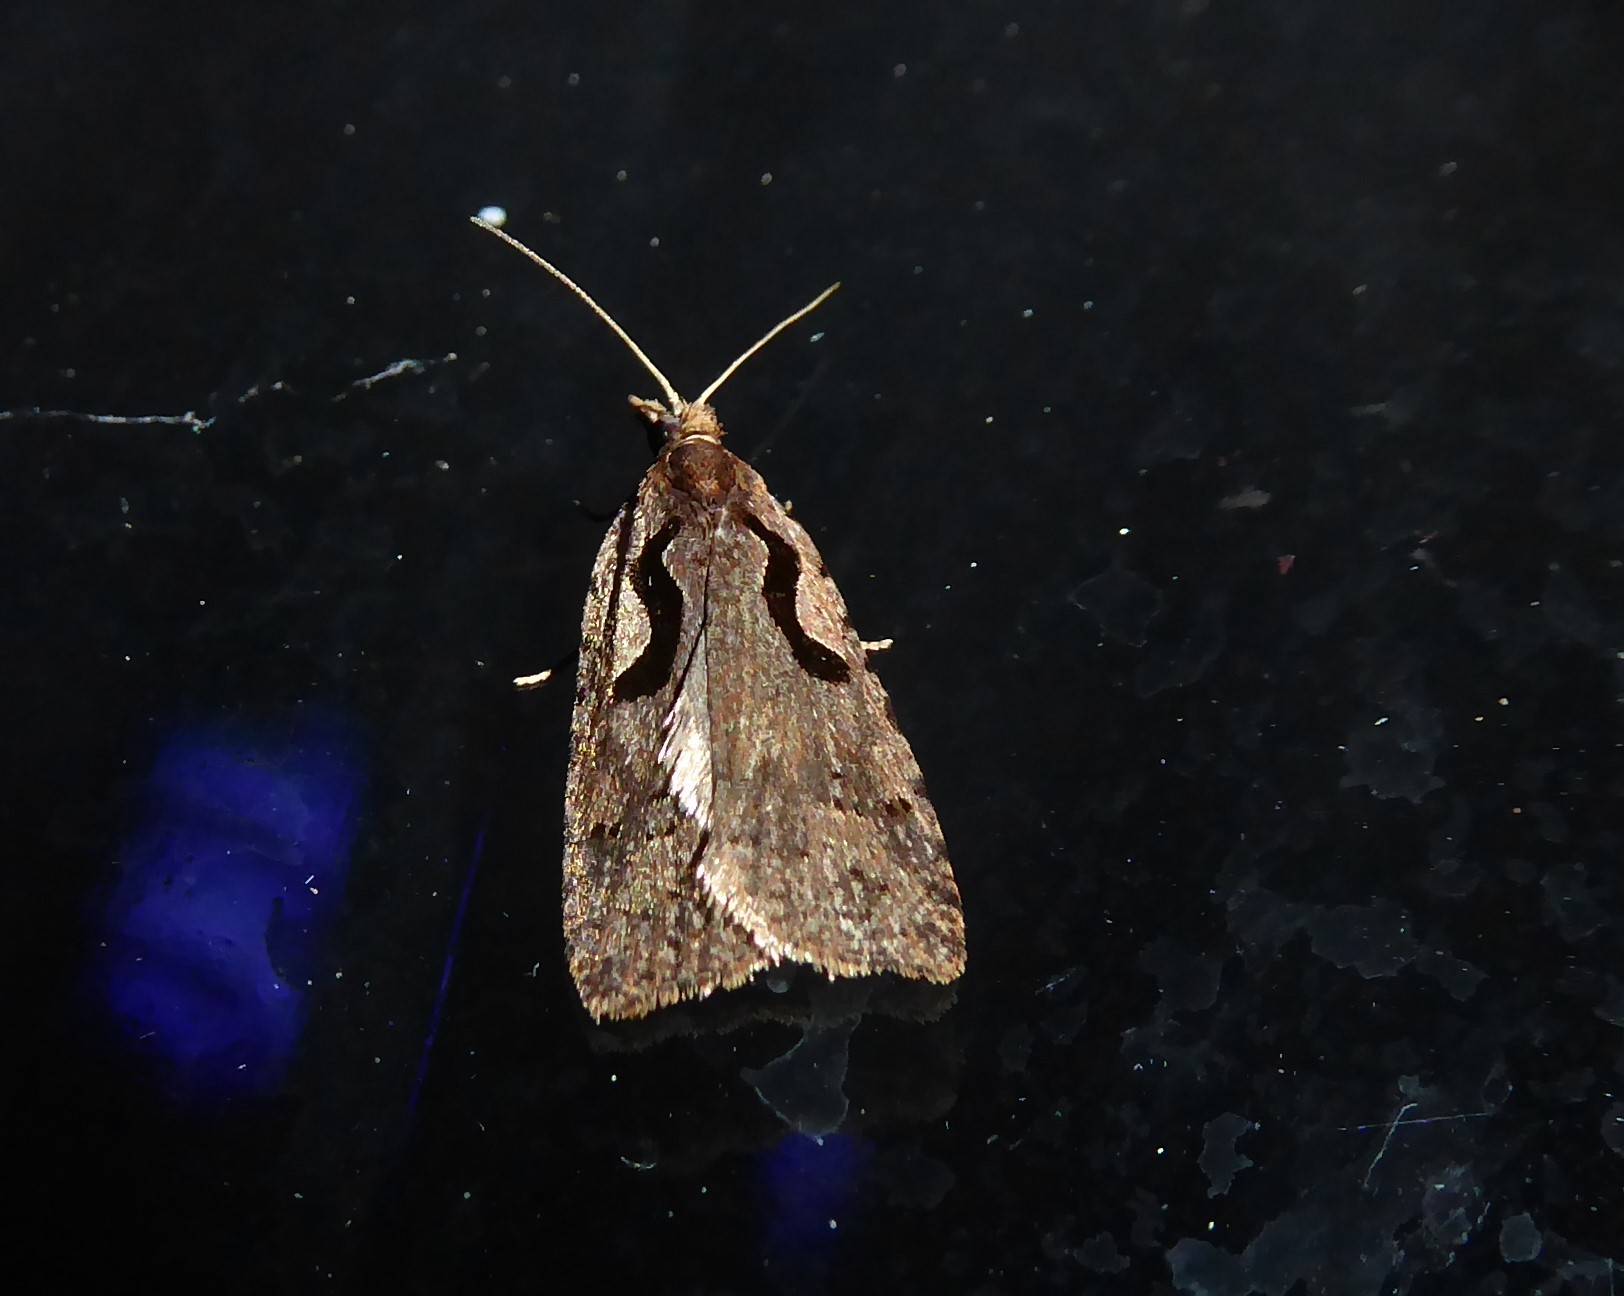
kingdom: Animalia
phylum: Arthropoda
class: Insecta
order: Lepidoptera
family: Tortricidae
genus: Cnephasia
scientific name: Cnephasia jactatana
